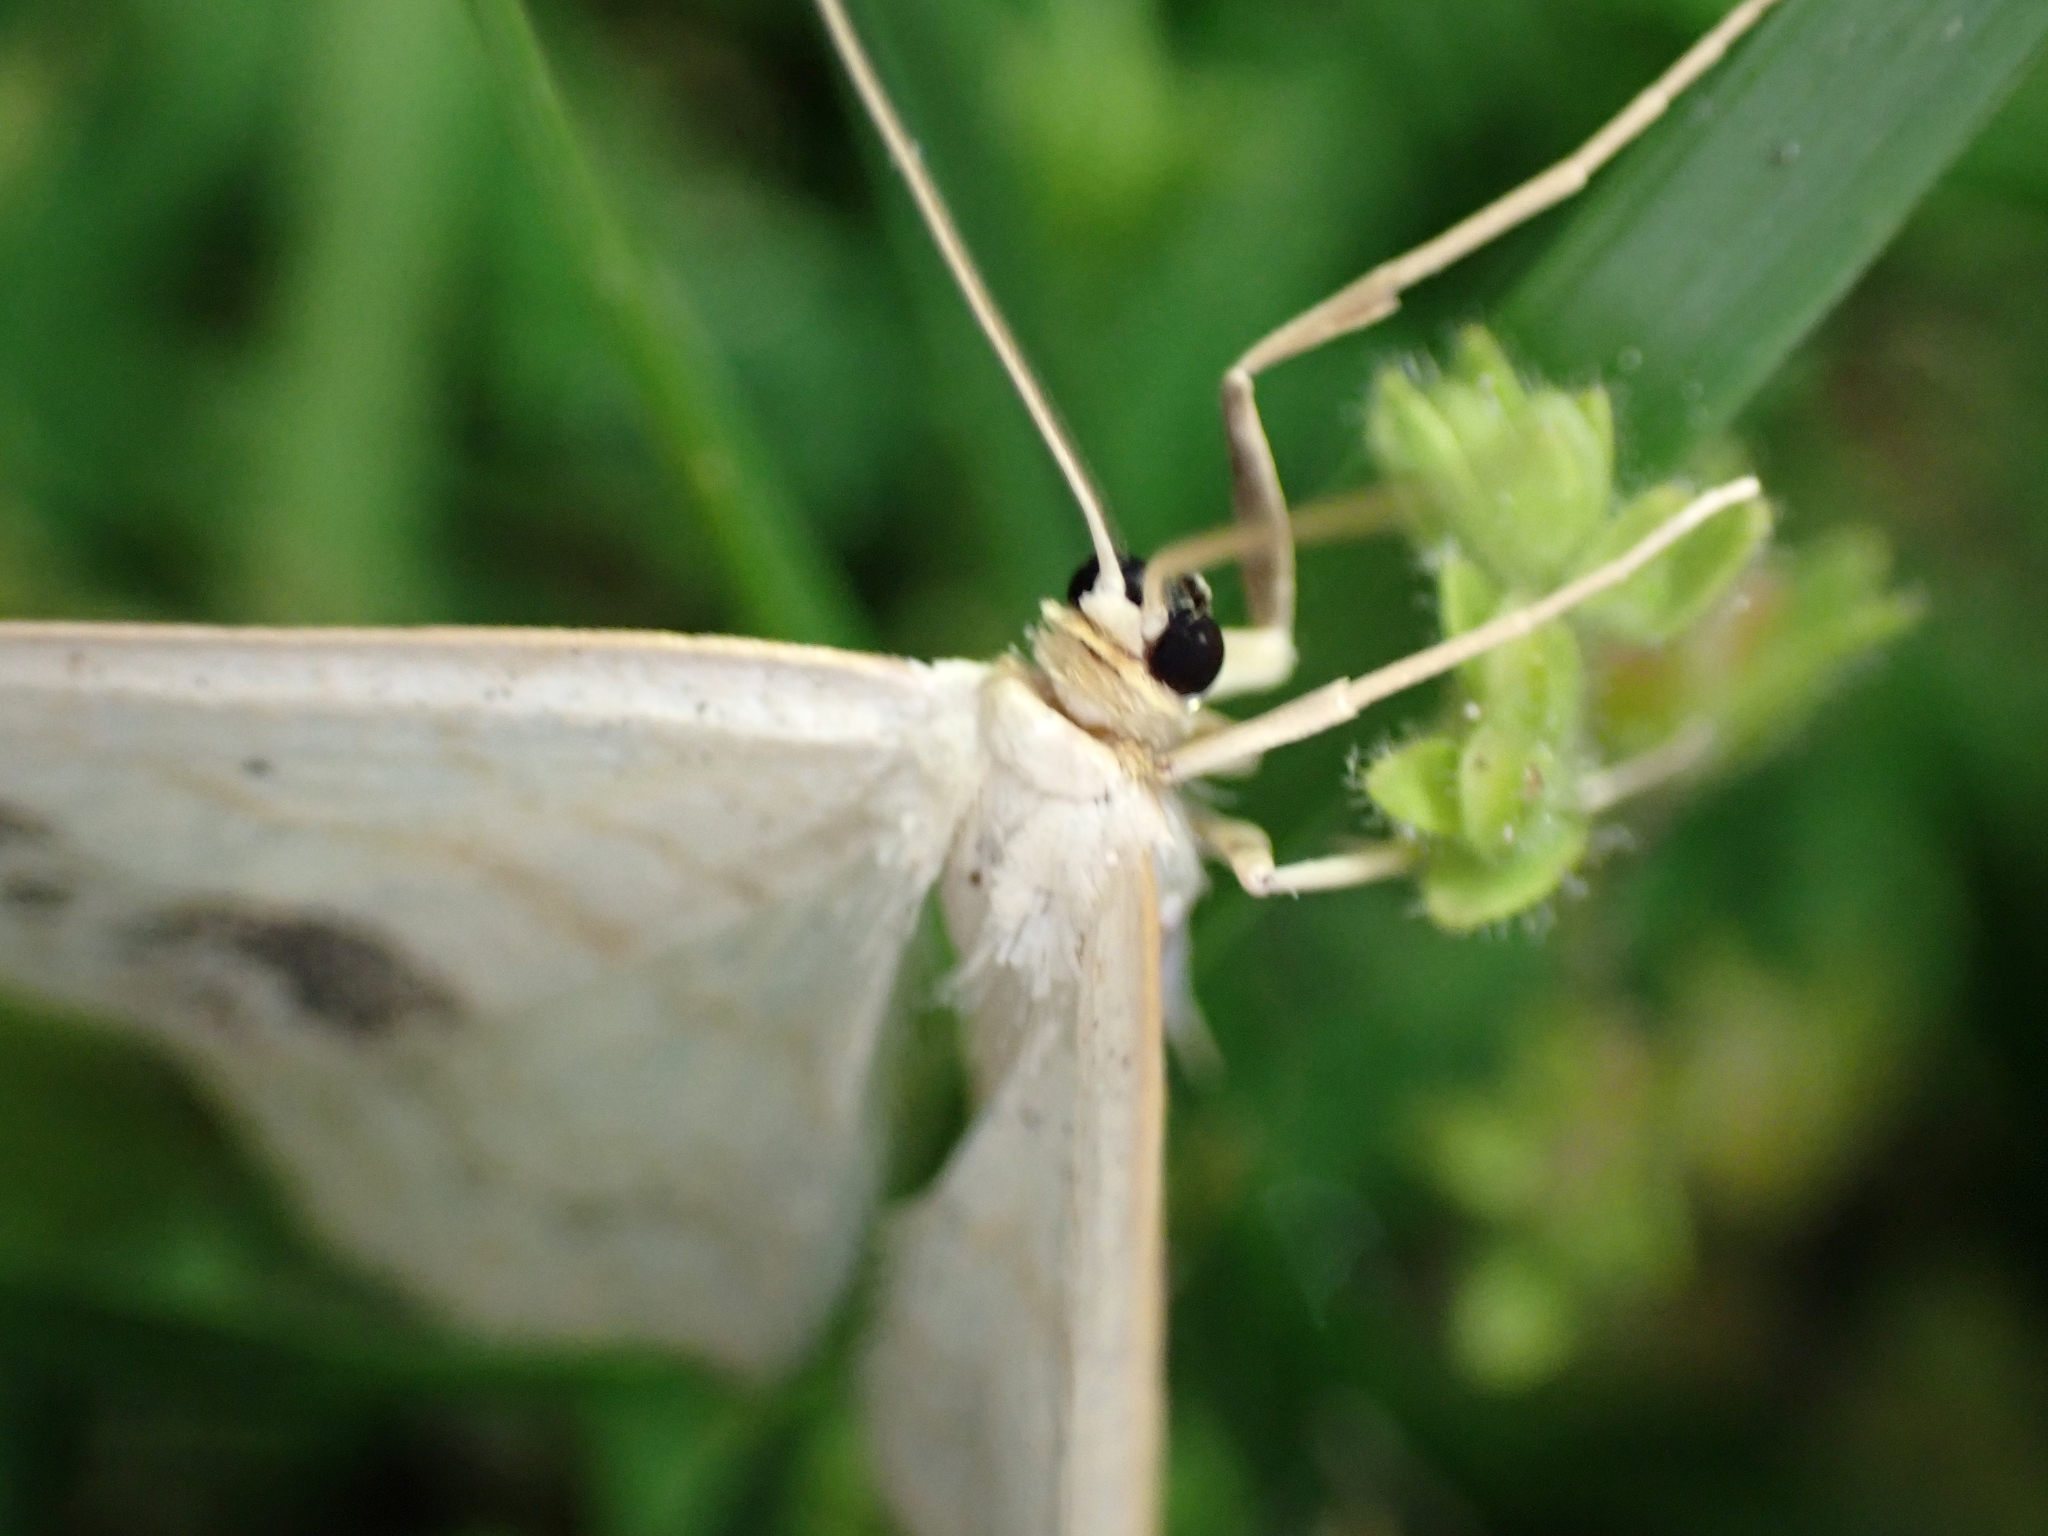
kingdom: Animalia
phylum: Arthropoda
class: Insecta
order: Lepidoptera
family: Geometridae
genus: Scopula
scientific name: Scopula limboundata
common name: Large lace border
